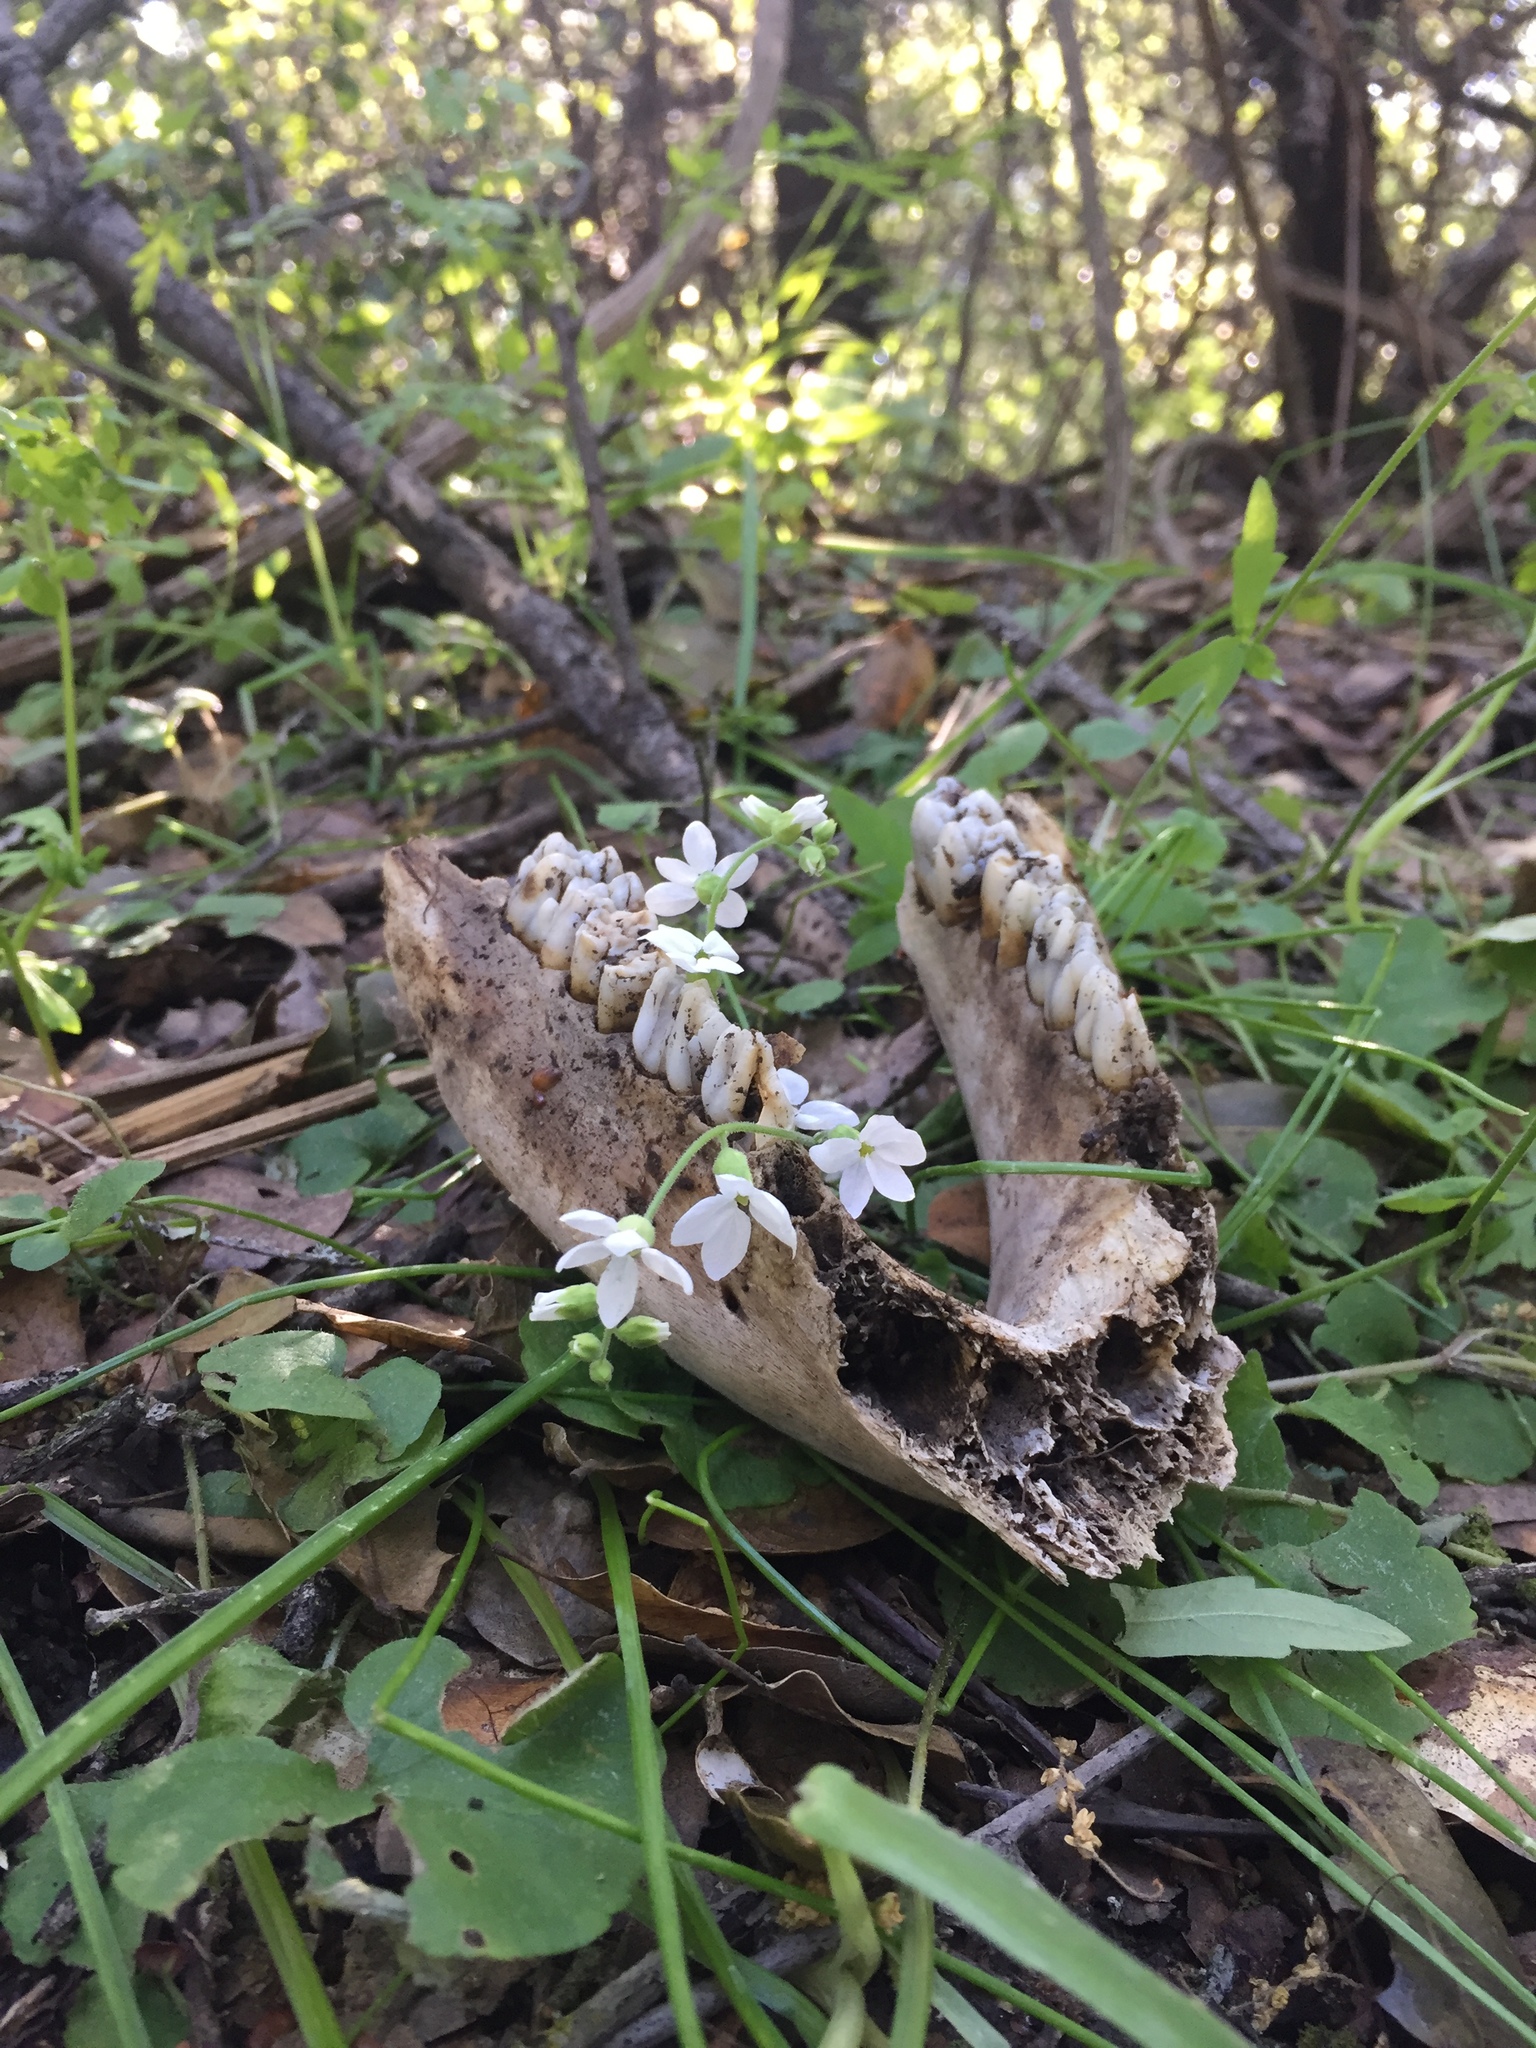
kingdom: Animalia
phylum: Chordata
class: Mammalia
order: Artiodactyla
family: Suidae
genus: Sus
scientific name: Sus scrofa
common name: Wild boar
